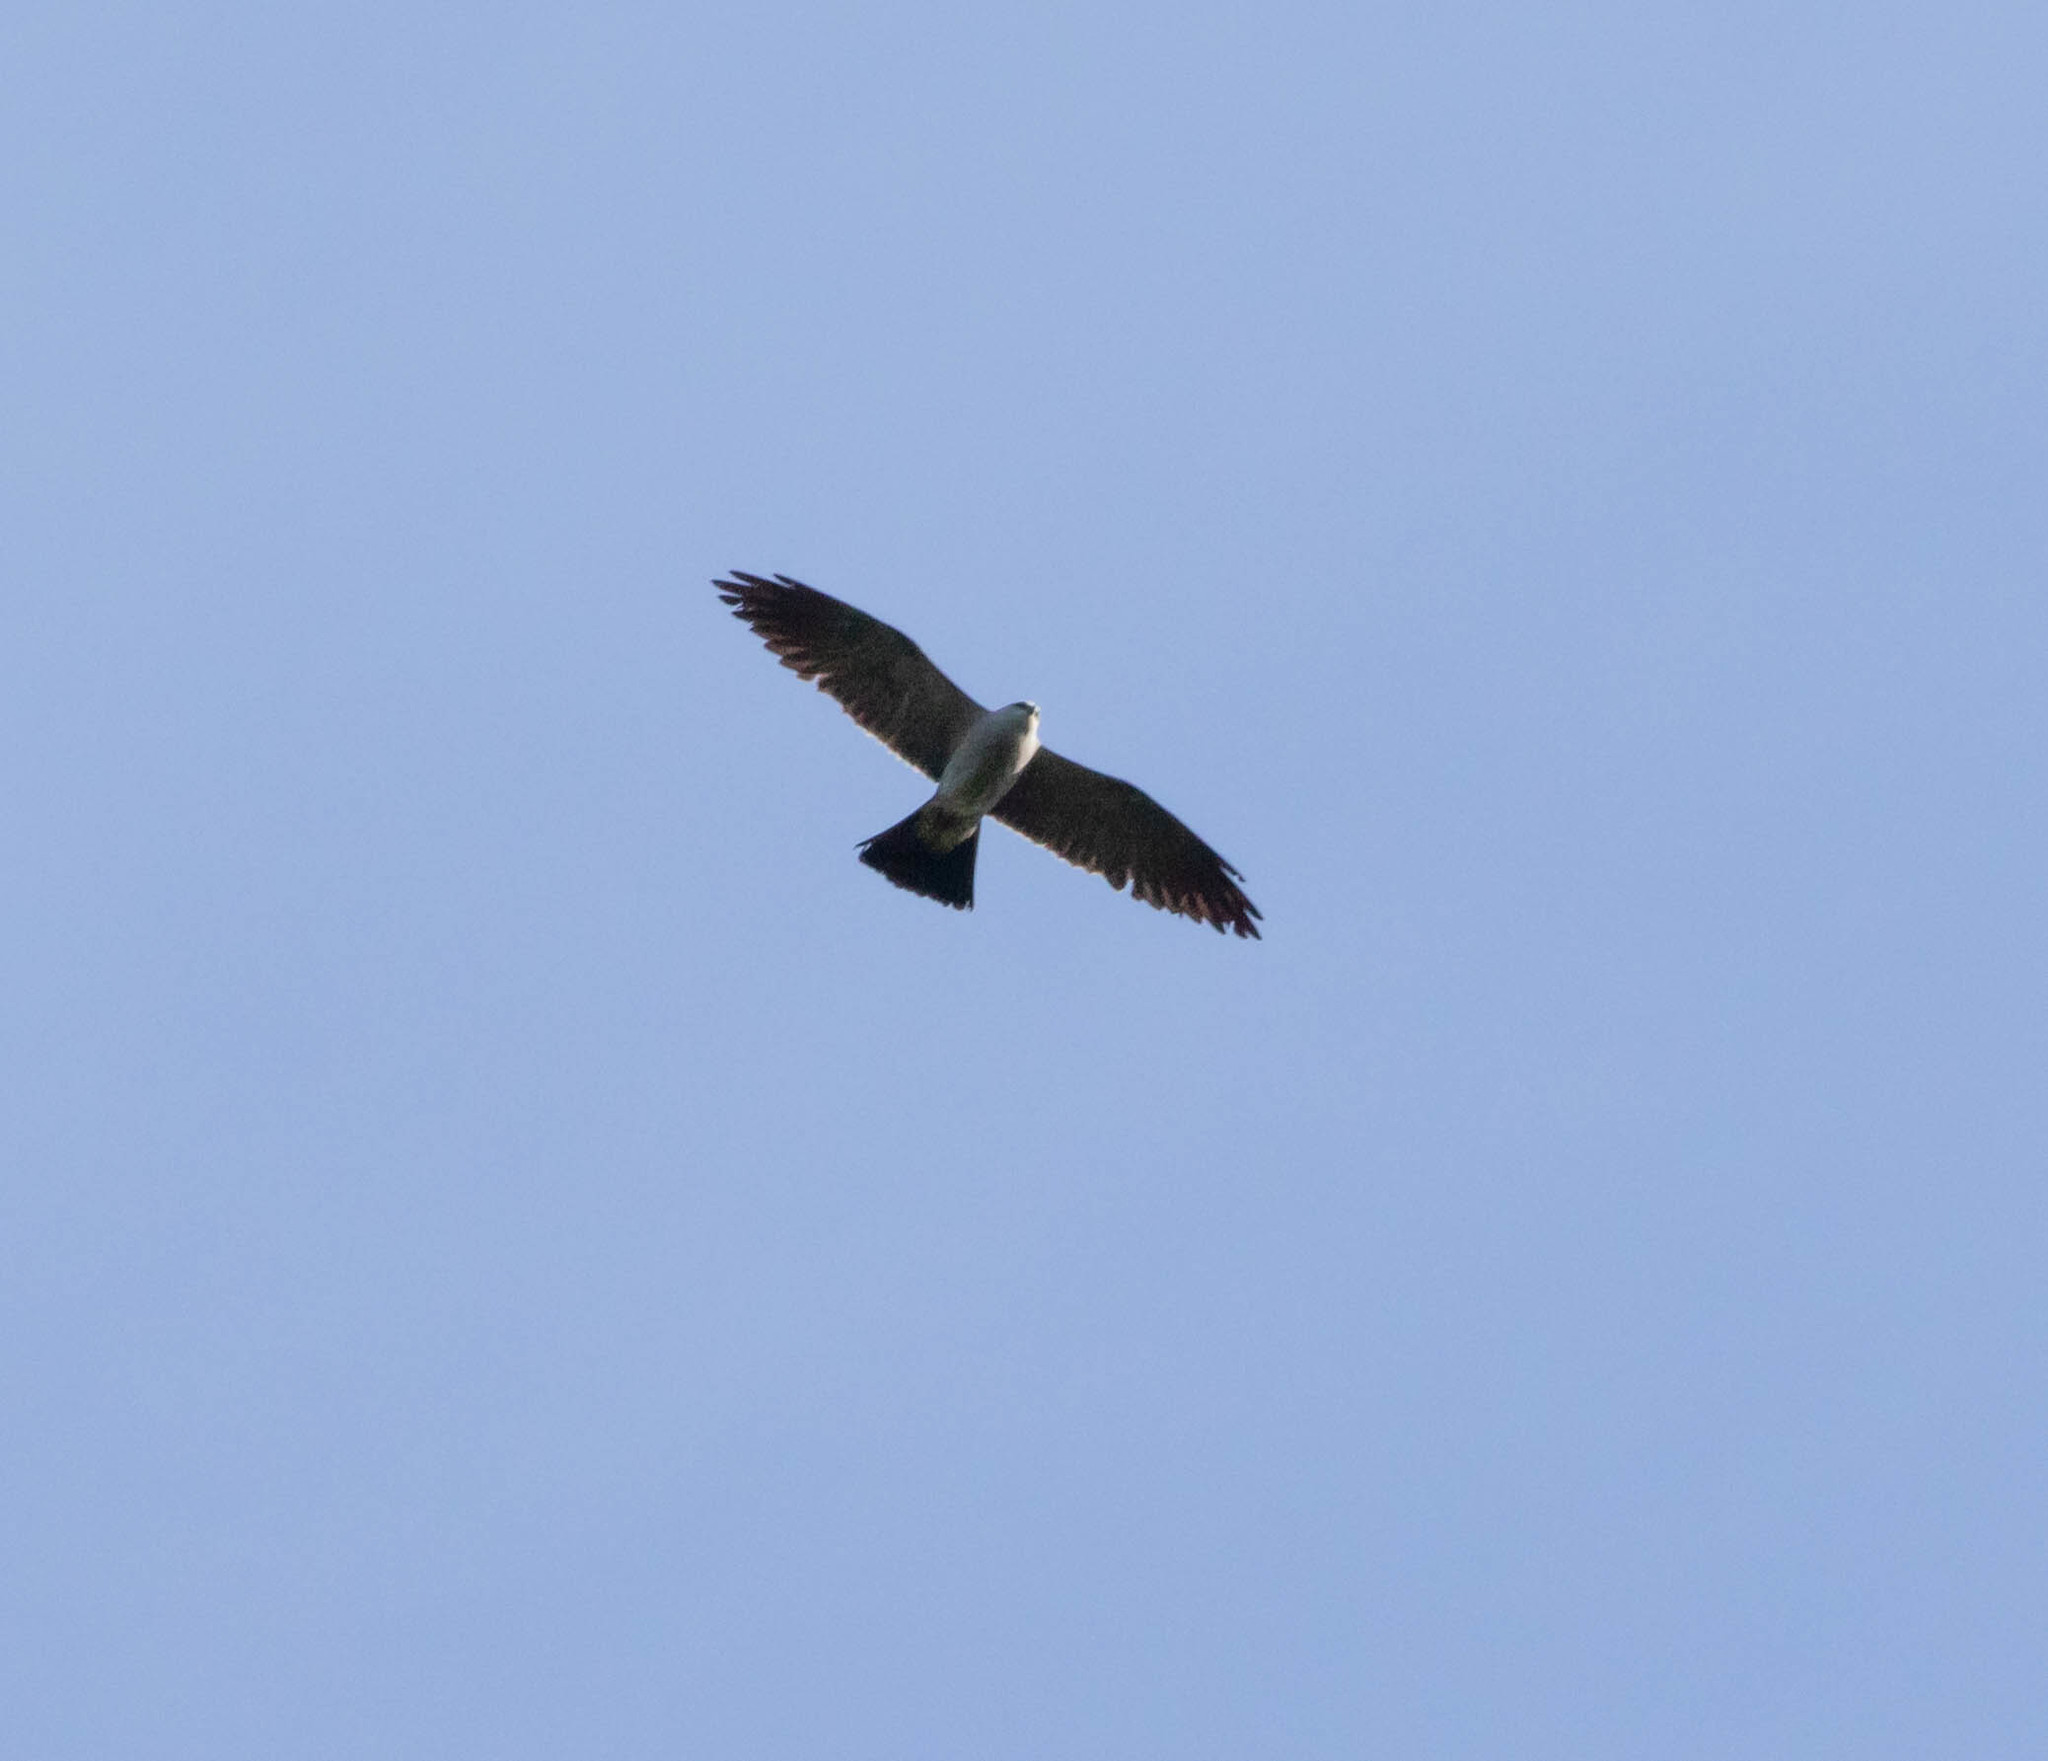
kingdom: Animalia
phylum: Chordata
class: Aves
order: Accipitriformes
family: Accipitridae
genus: Ictinia
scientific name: Ictinia mississippiensis
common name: Mississippi kite
